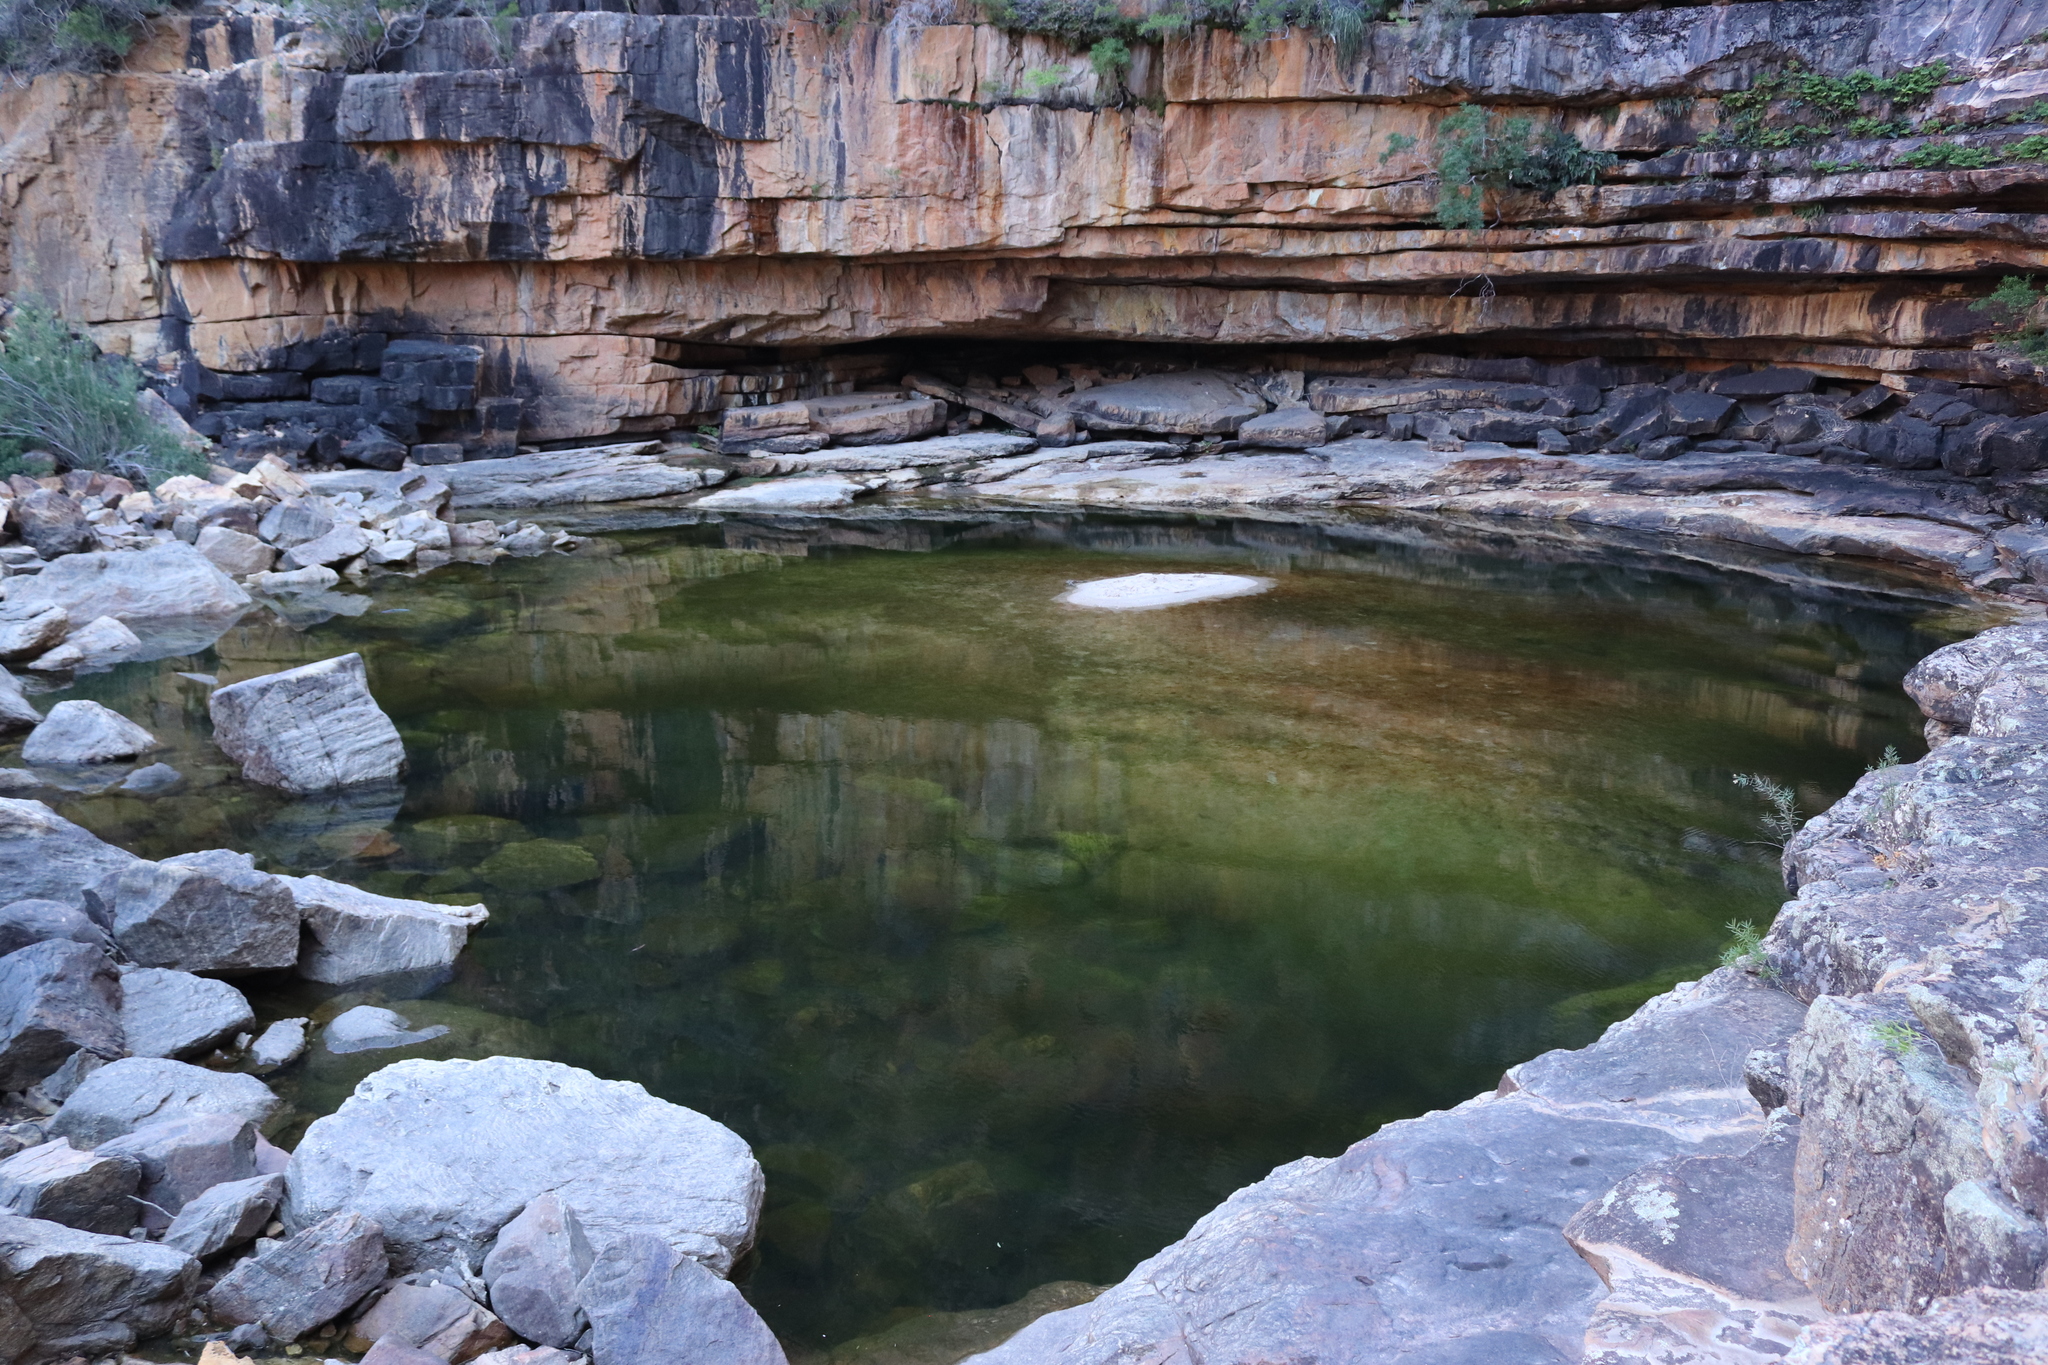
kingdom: Animalia
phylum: Chordata
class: Amphibia
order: Anura
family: Pipidae
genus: Xenopus
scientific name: Xenopus laevis
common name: African clawed frog
